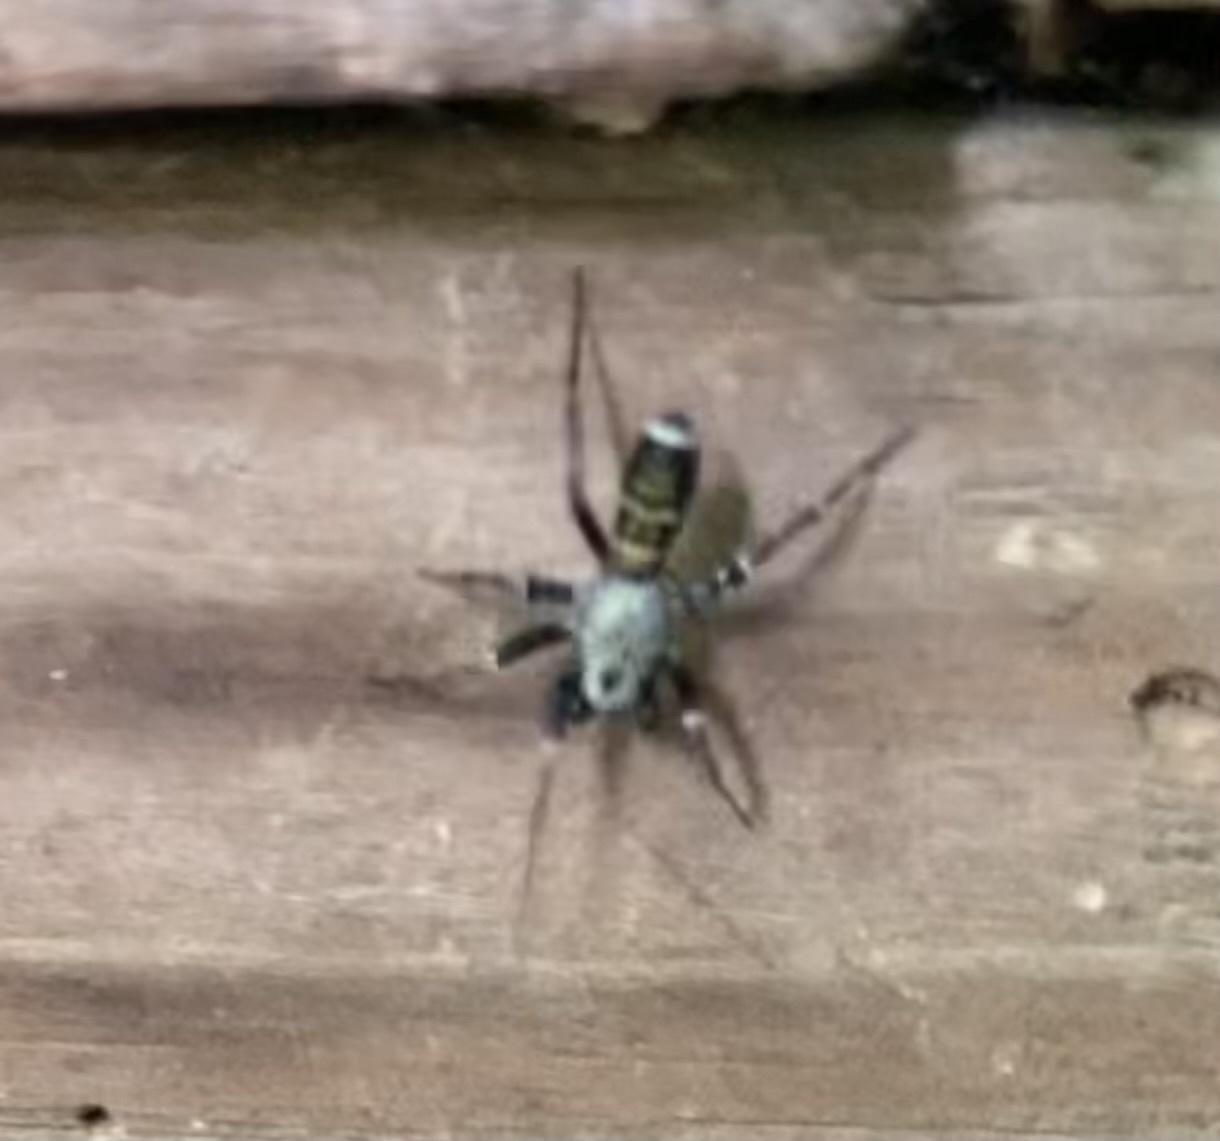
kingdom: Animalia
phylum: Arthropoda
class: Arachnida
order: Araneae
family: Corinnidae
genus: Castianeira
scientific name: Castianeira longipalpa
